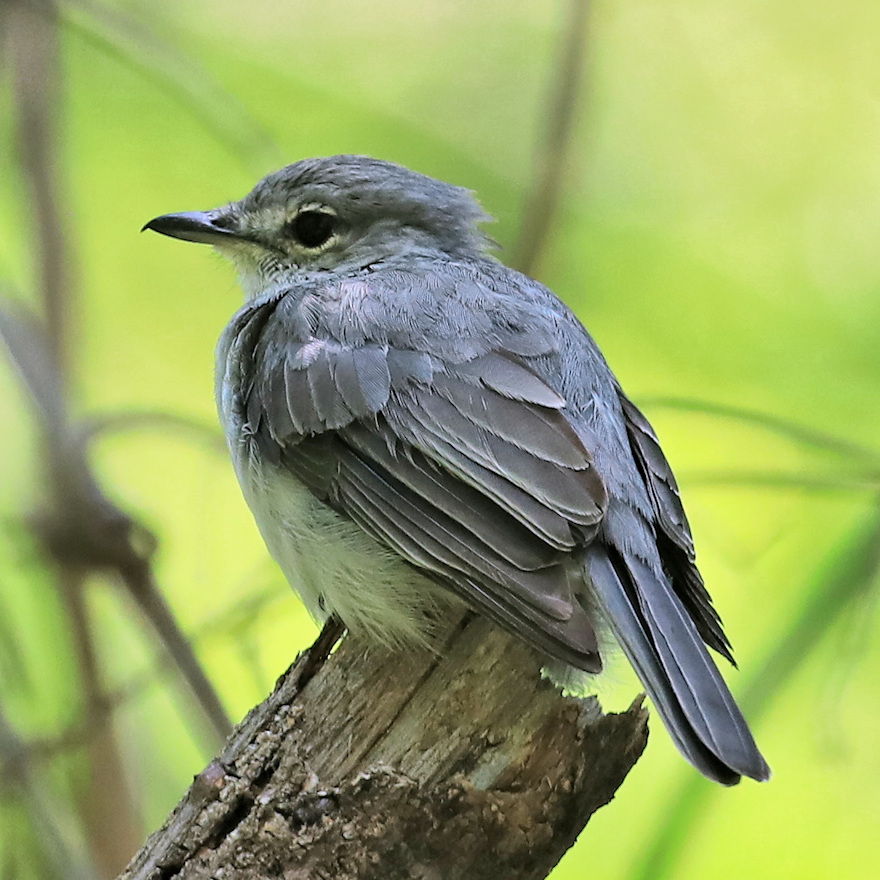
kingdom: Animalia
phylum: Chordata
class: Aves
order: Passeriformes
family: Muscicapidae
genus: Muscicapa
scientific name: Muscicapa caerulescens
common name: Ashy flycatcher
